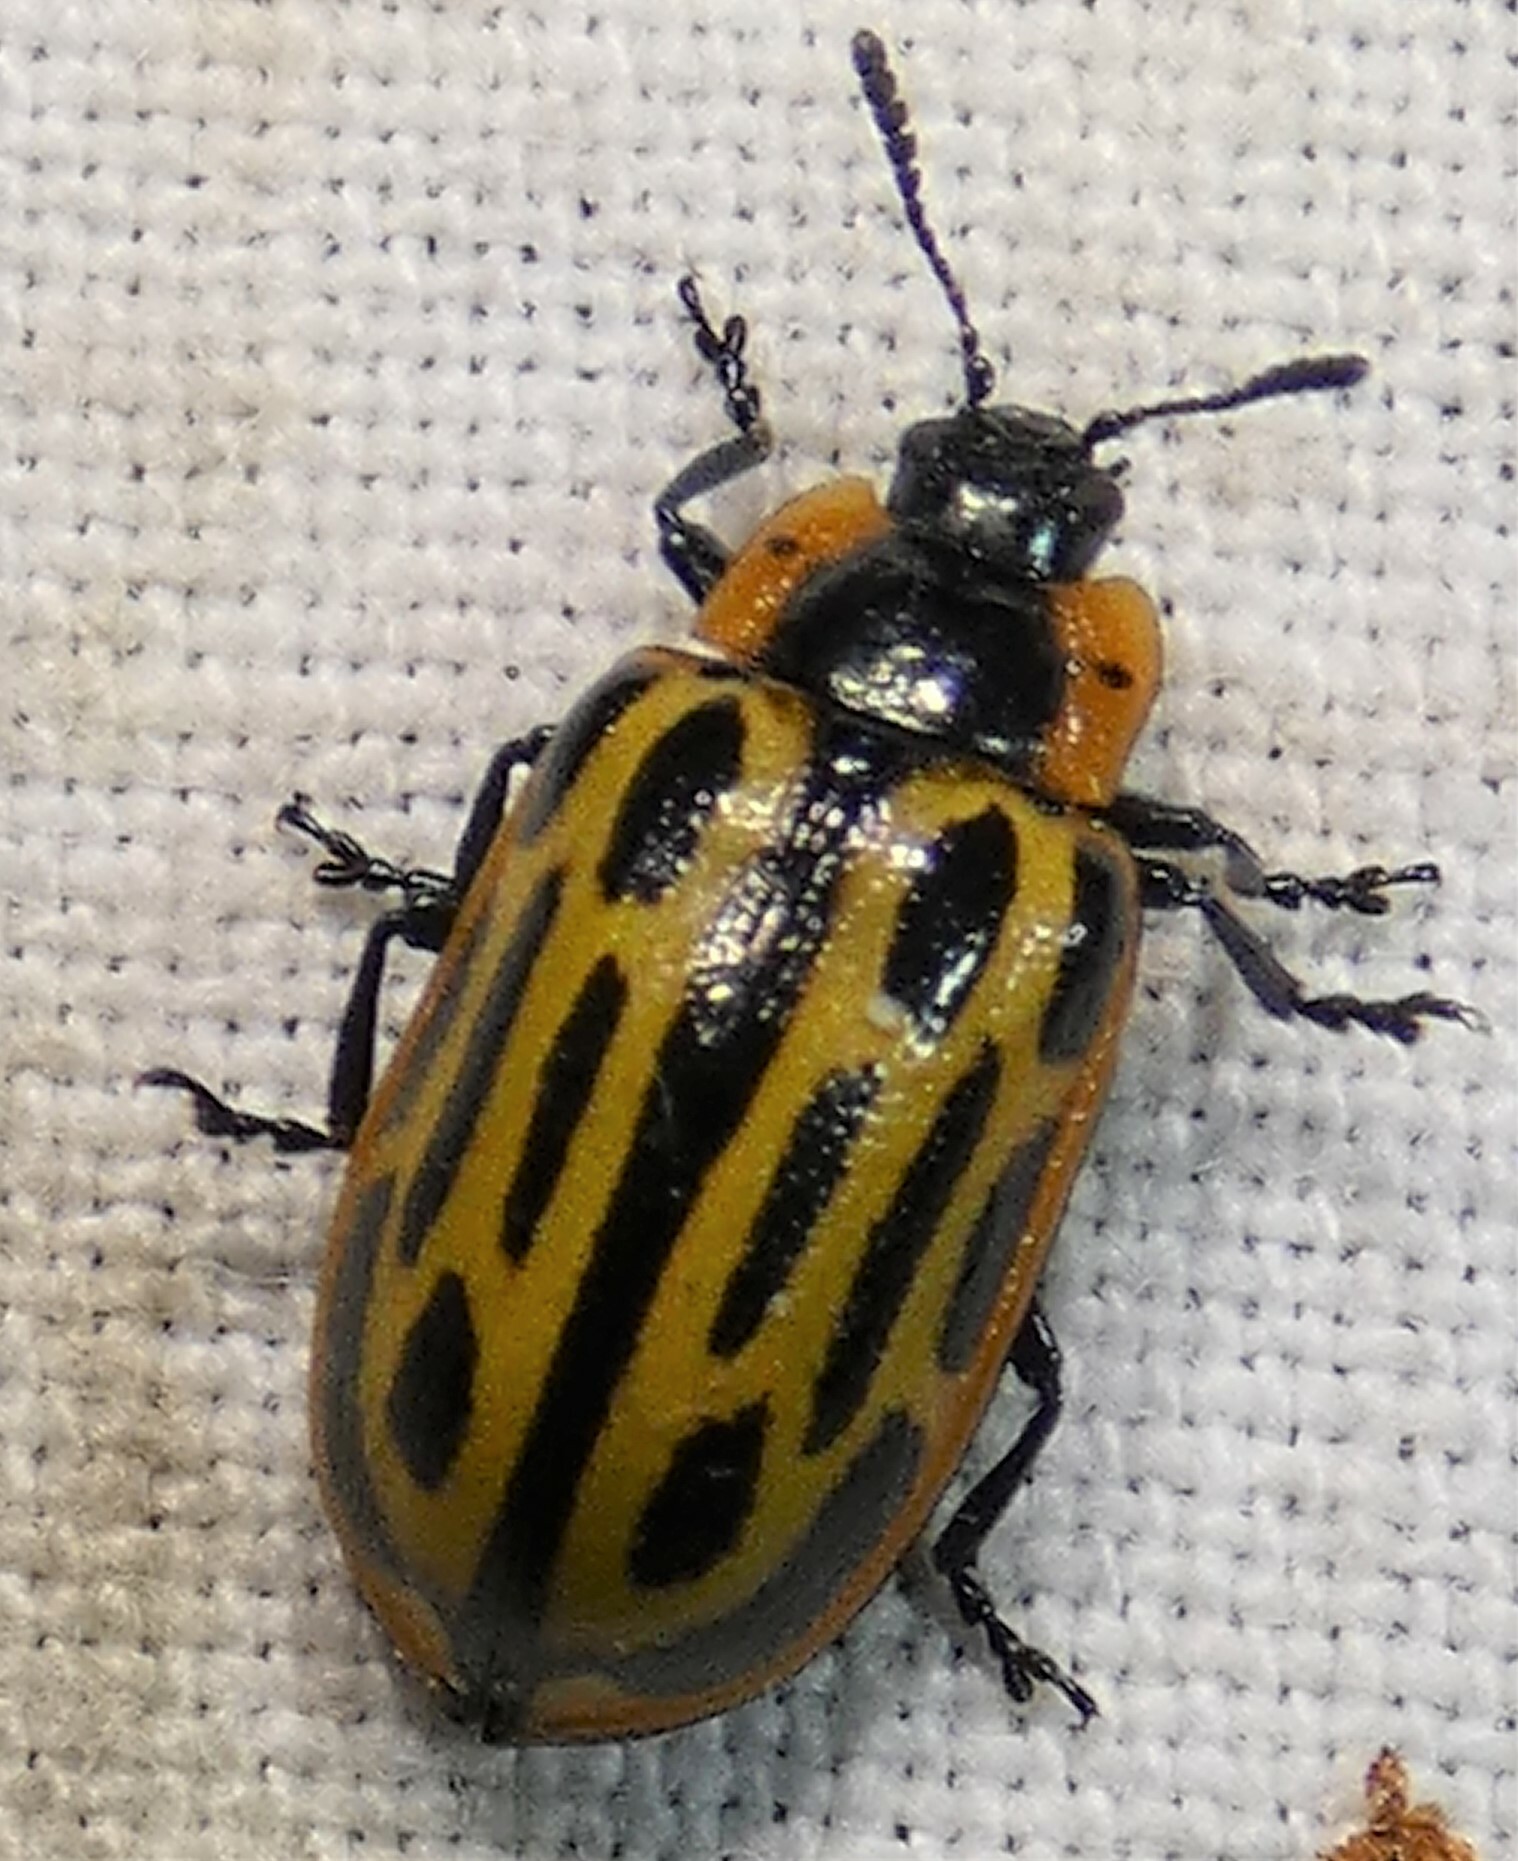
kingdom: Animalia
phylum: Arthropoda
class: Insecta
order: Coleoptera
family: Chrysomelidae
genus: Aethiopocassis
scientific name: Aethiopocassis scripta
